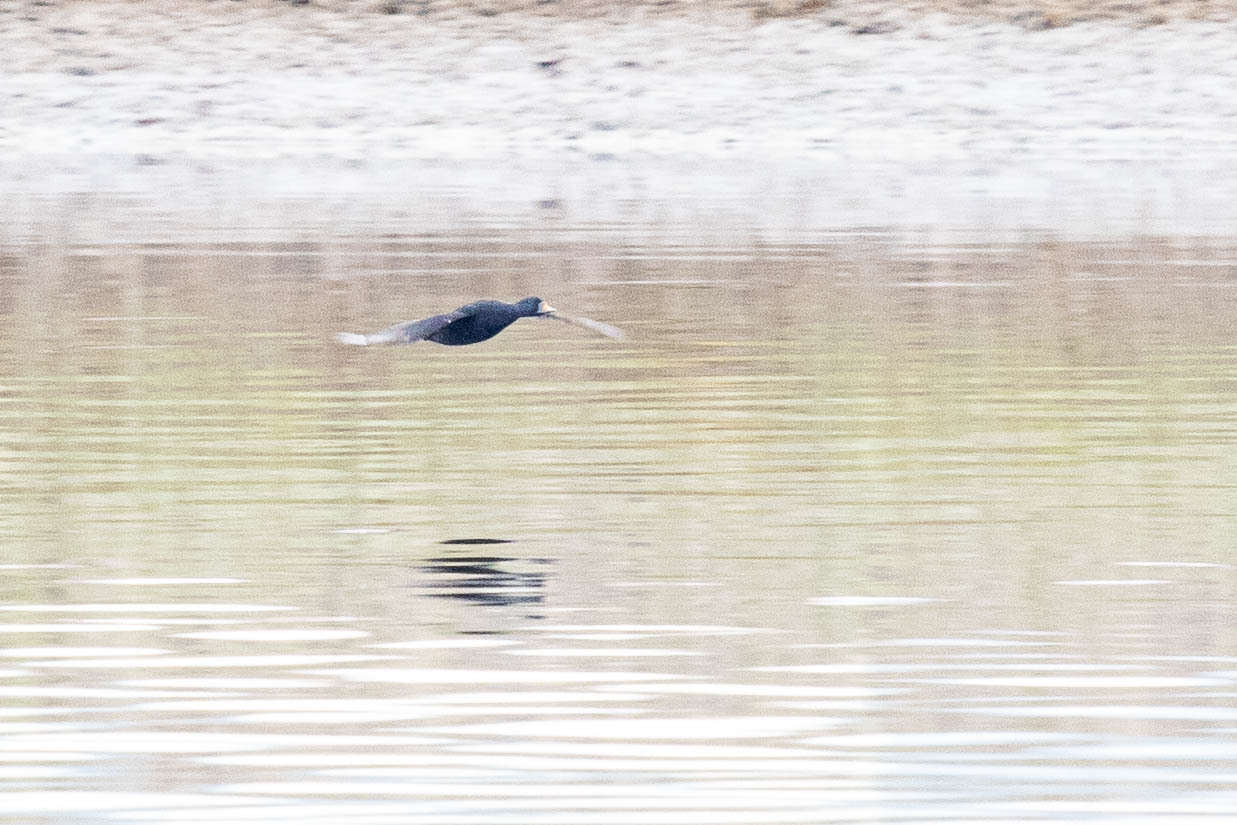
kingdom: Animalia
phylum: Chordata
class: Aves
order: Anseriformes
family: Anatidae
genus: Melanitta
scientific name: Melanitta fusca
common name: Velvet scoter
